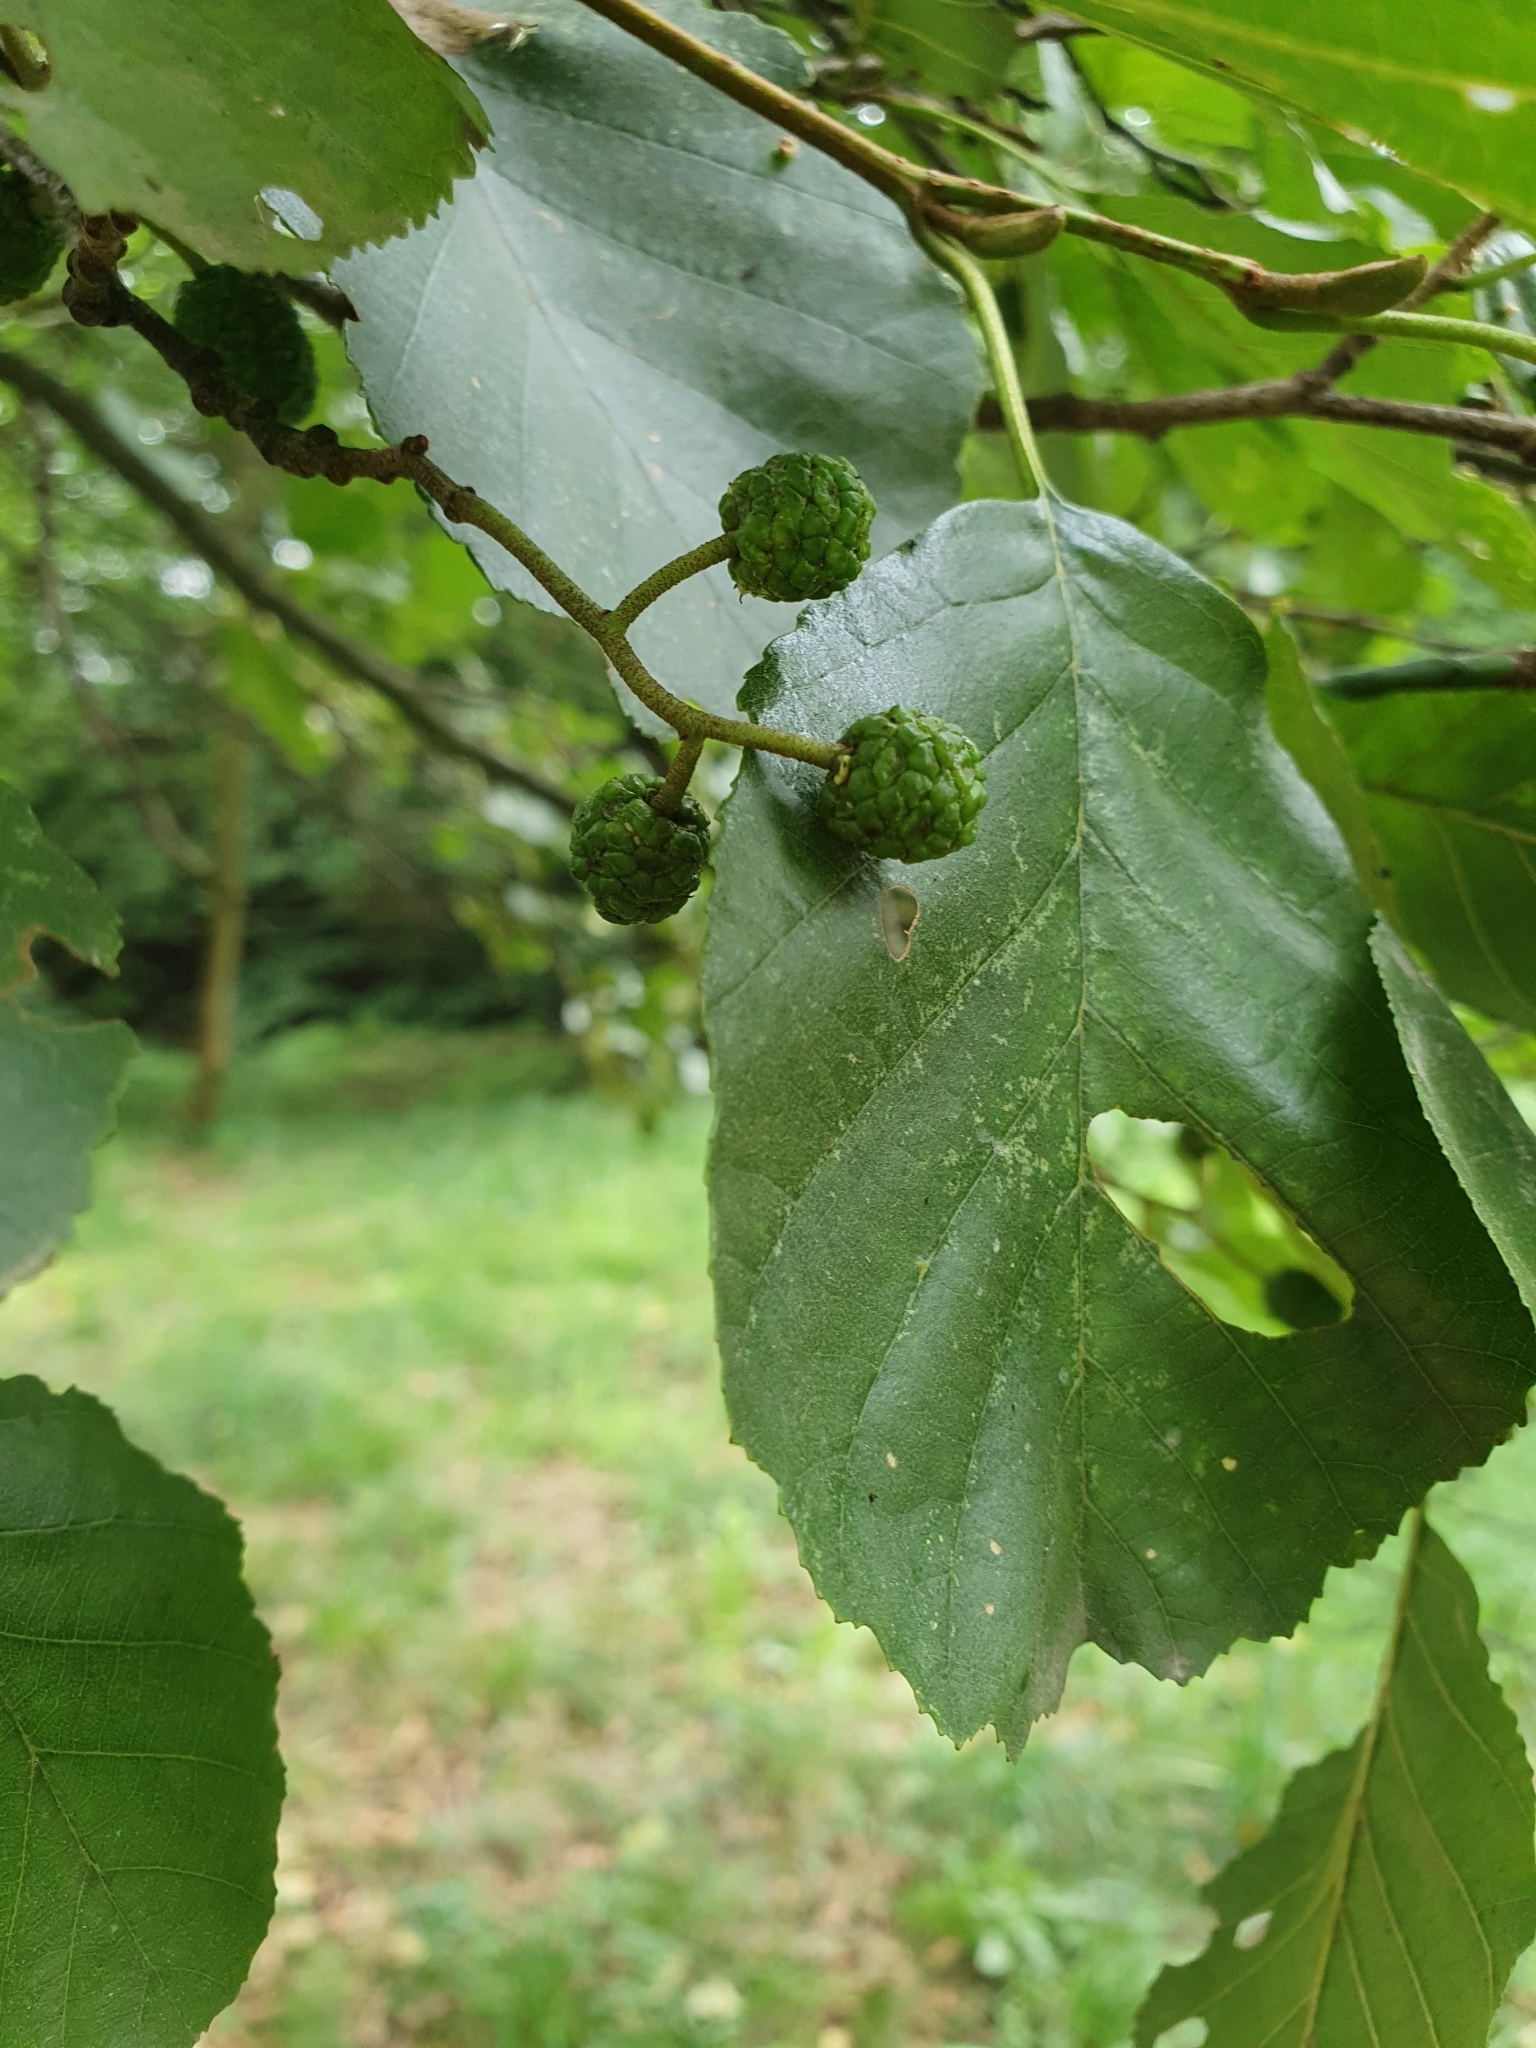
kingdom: Plantae
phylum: Tracheophyta
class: Magnoliopsida
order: Fagales
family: Betulaceae
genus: Alnus
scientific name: Alnus glutinosa
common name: Black alder
